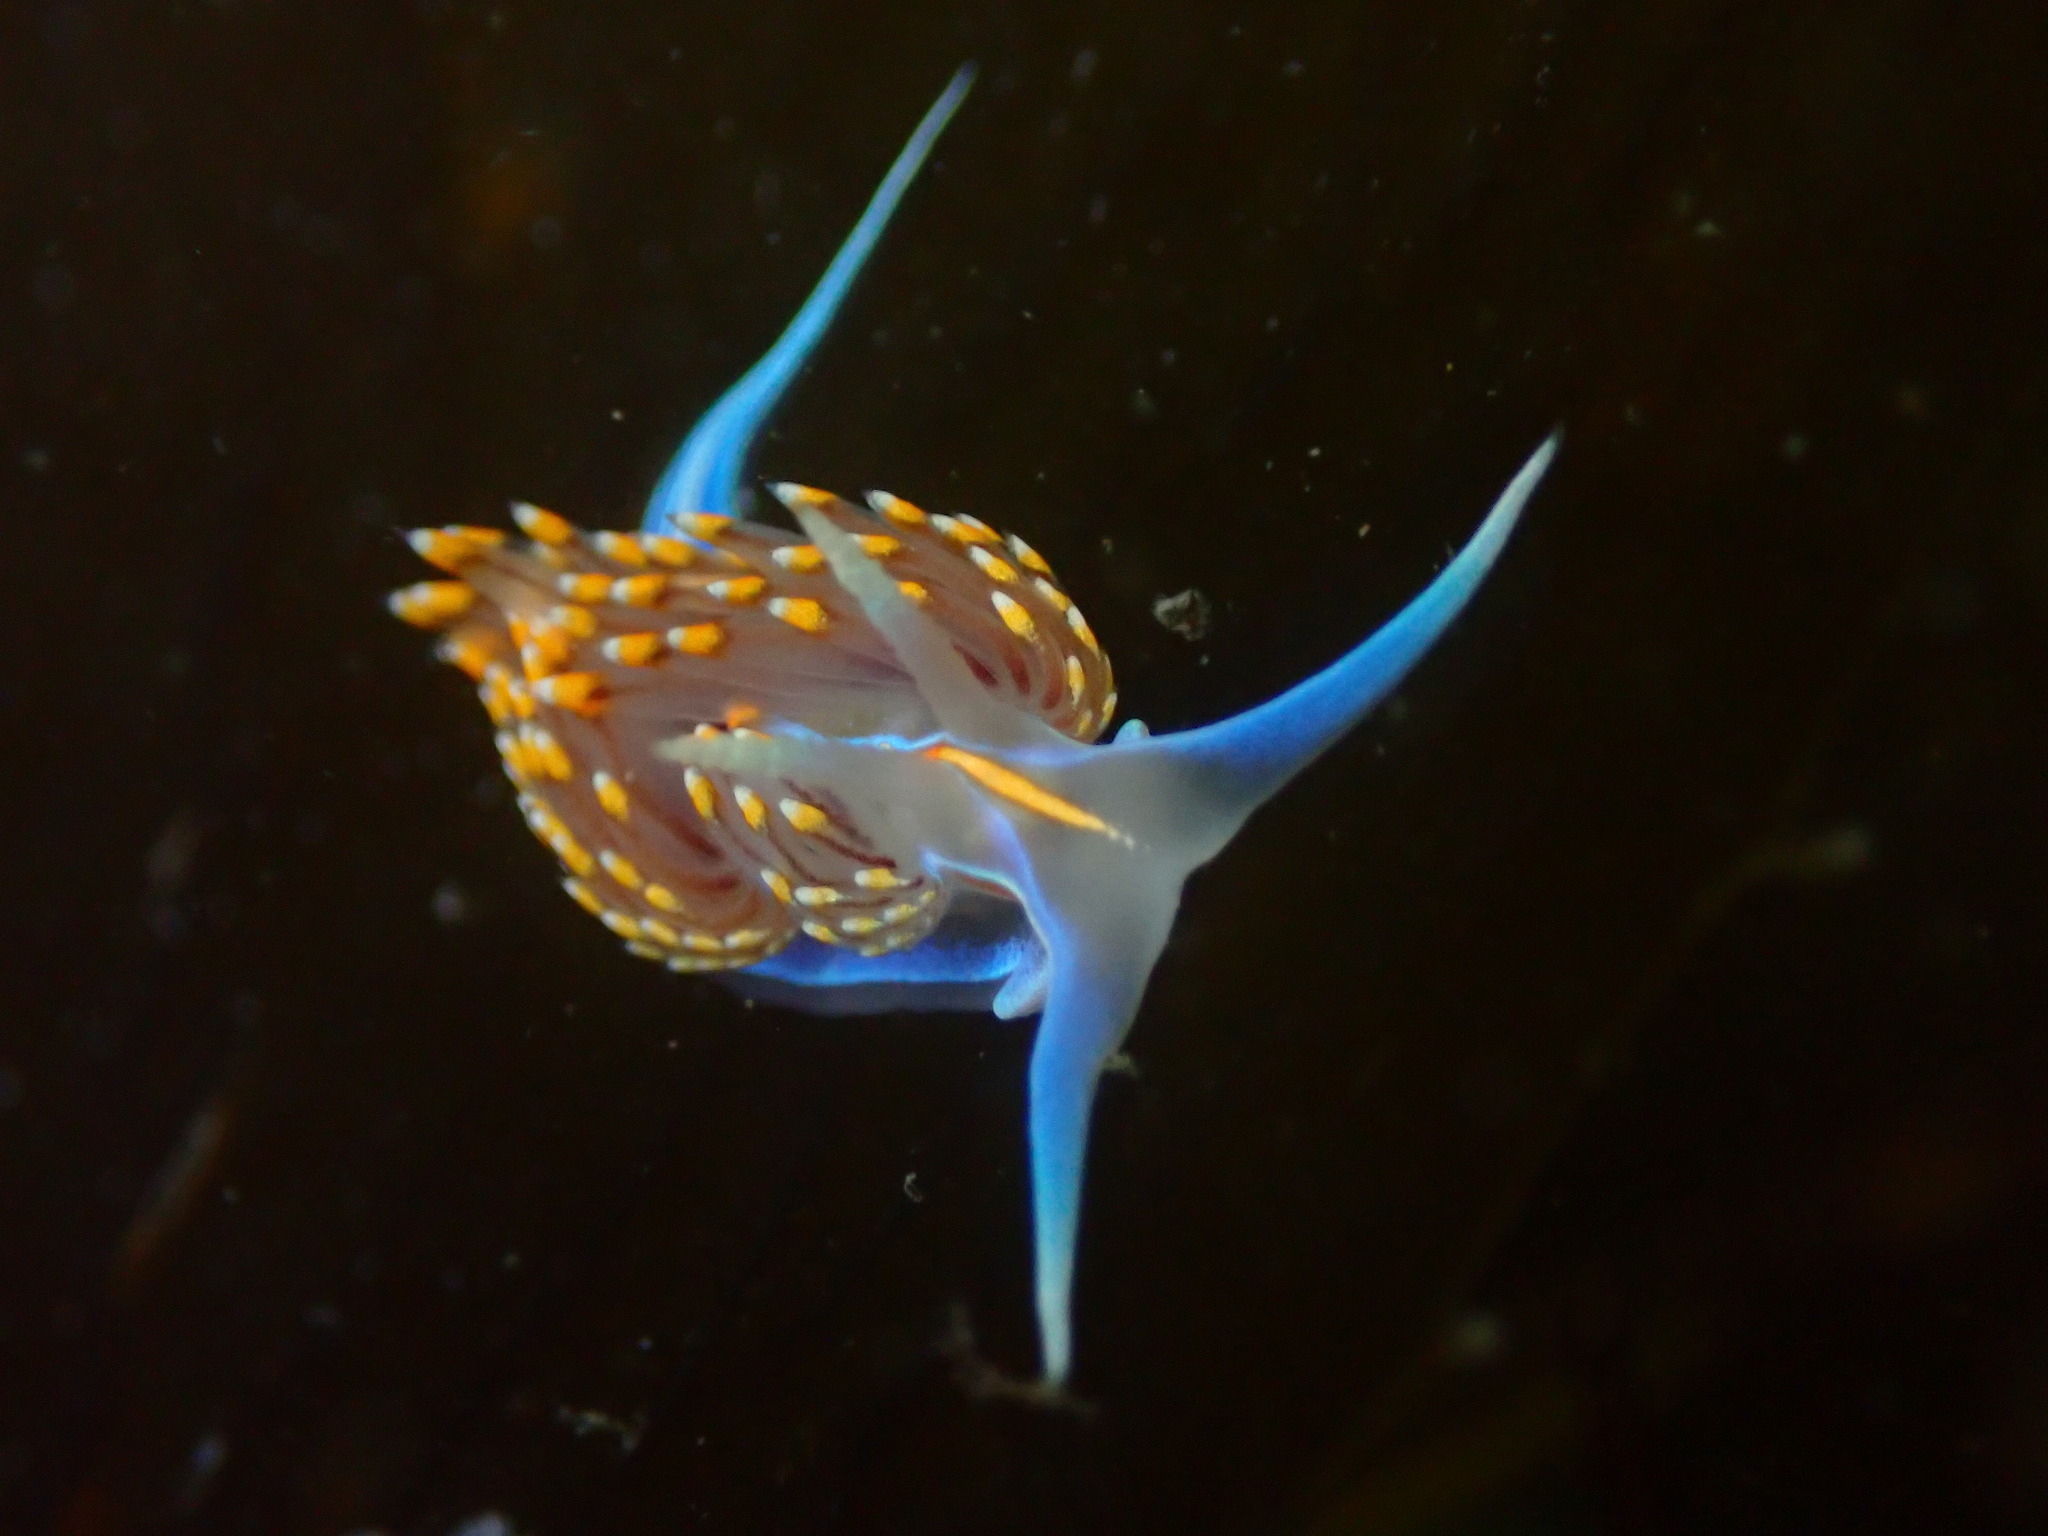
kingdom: Animalia
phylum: Mollusca
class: Gastropoda
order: Nudibranchia
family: Myrrhinidae
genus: Hermissenda
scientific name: Hermissenda opalescens
